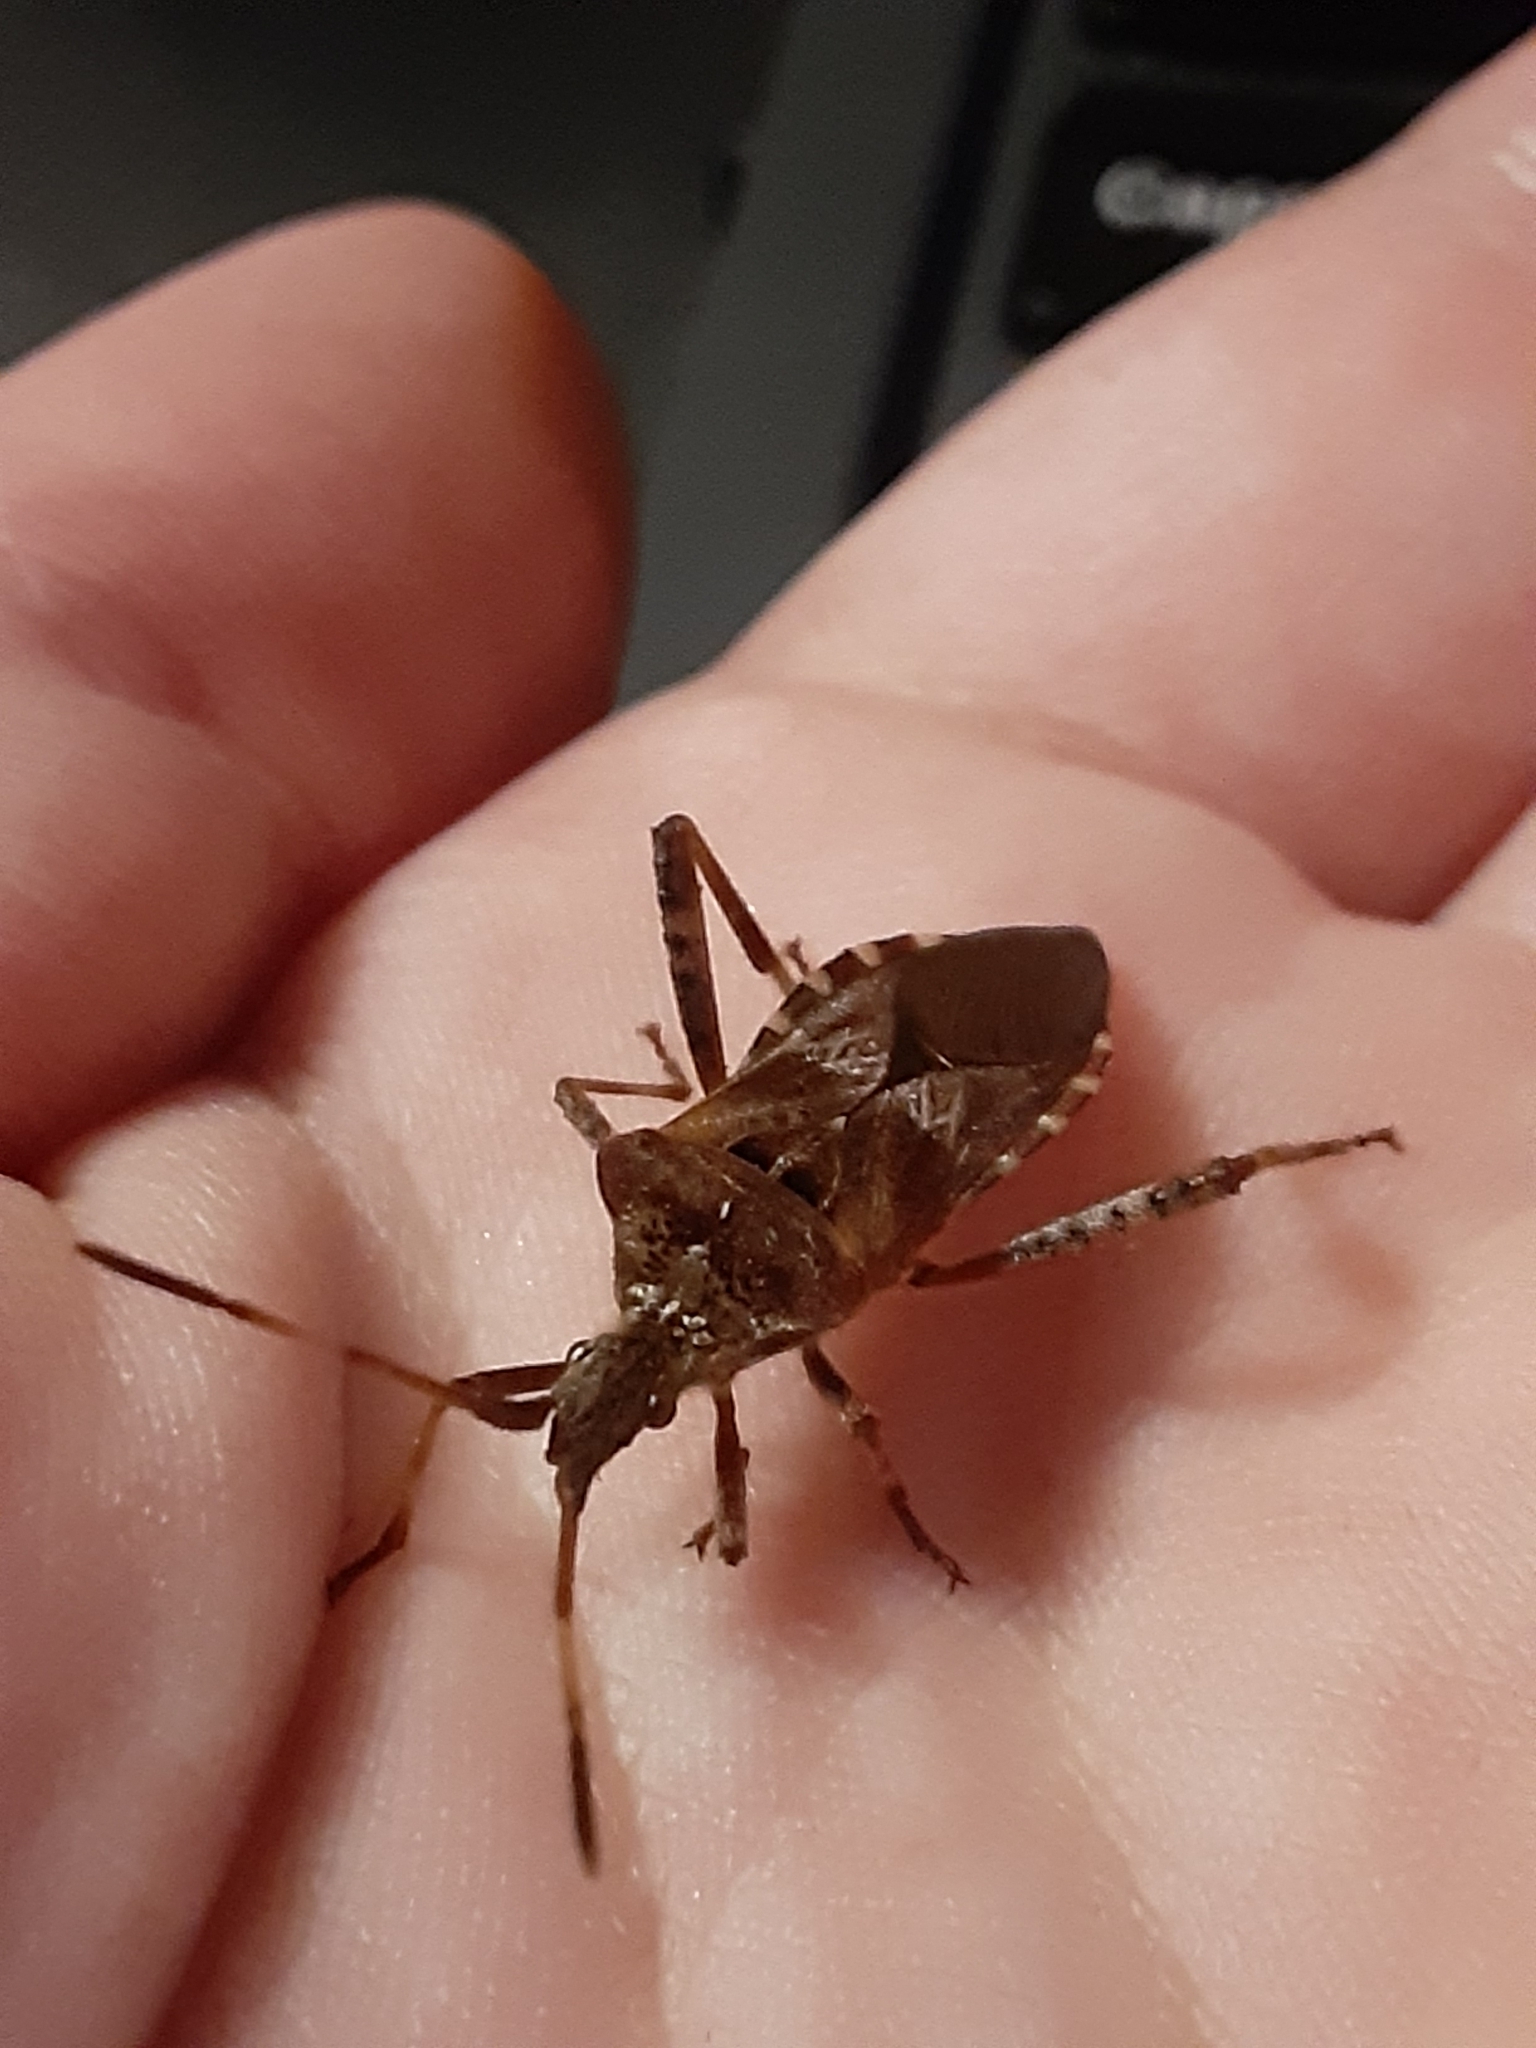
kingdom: Animalia
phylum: Arthropoda
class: Insecta
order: Hemiptera
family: Coreidae
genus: Leptoglossus
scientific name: Leptoglossus occidentalis
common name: Western conifer-seed bug
